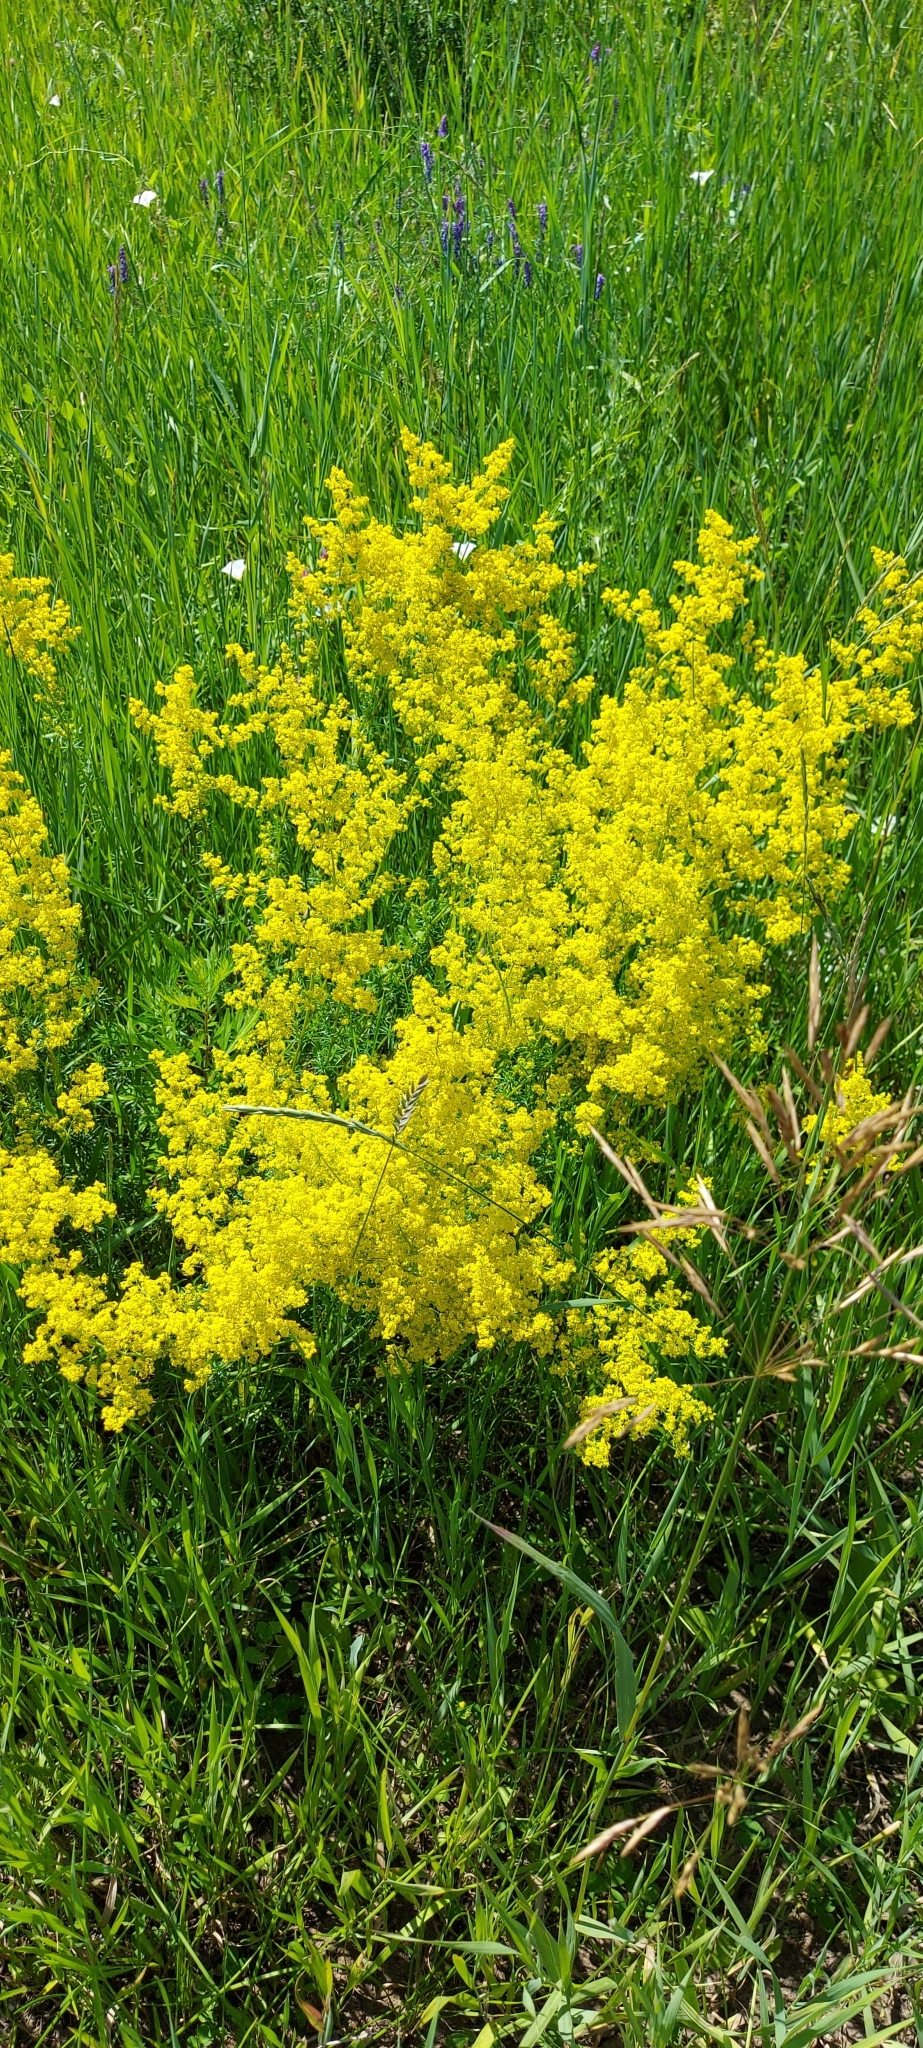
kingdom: Plantae
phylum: Tracheophyta
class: Magnoliopsida
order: Gentianales
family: Rubiaceae
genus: Galium
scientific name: Galium verum
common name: Lady's bedstraw
